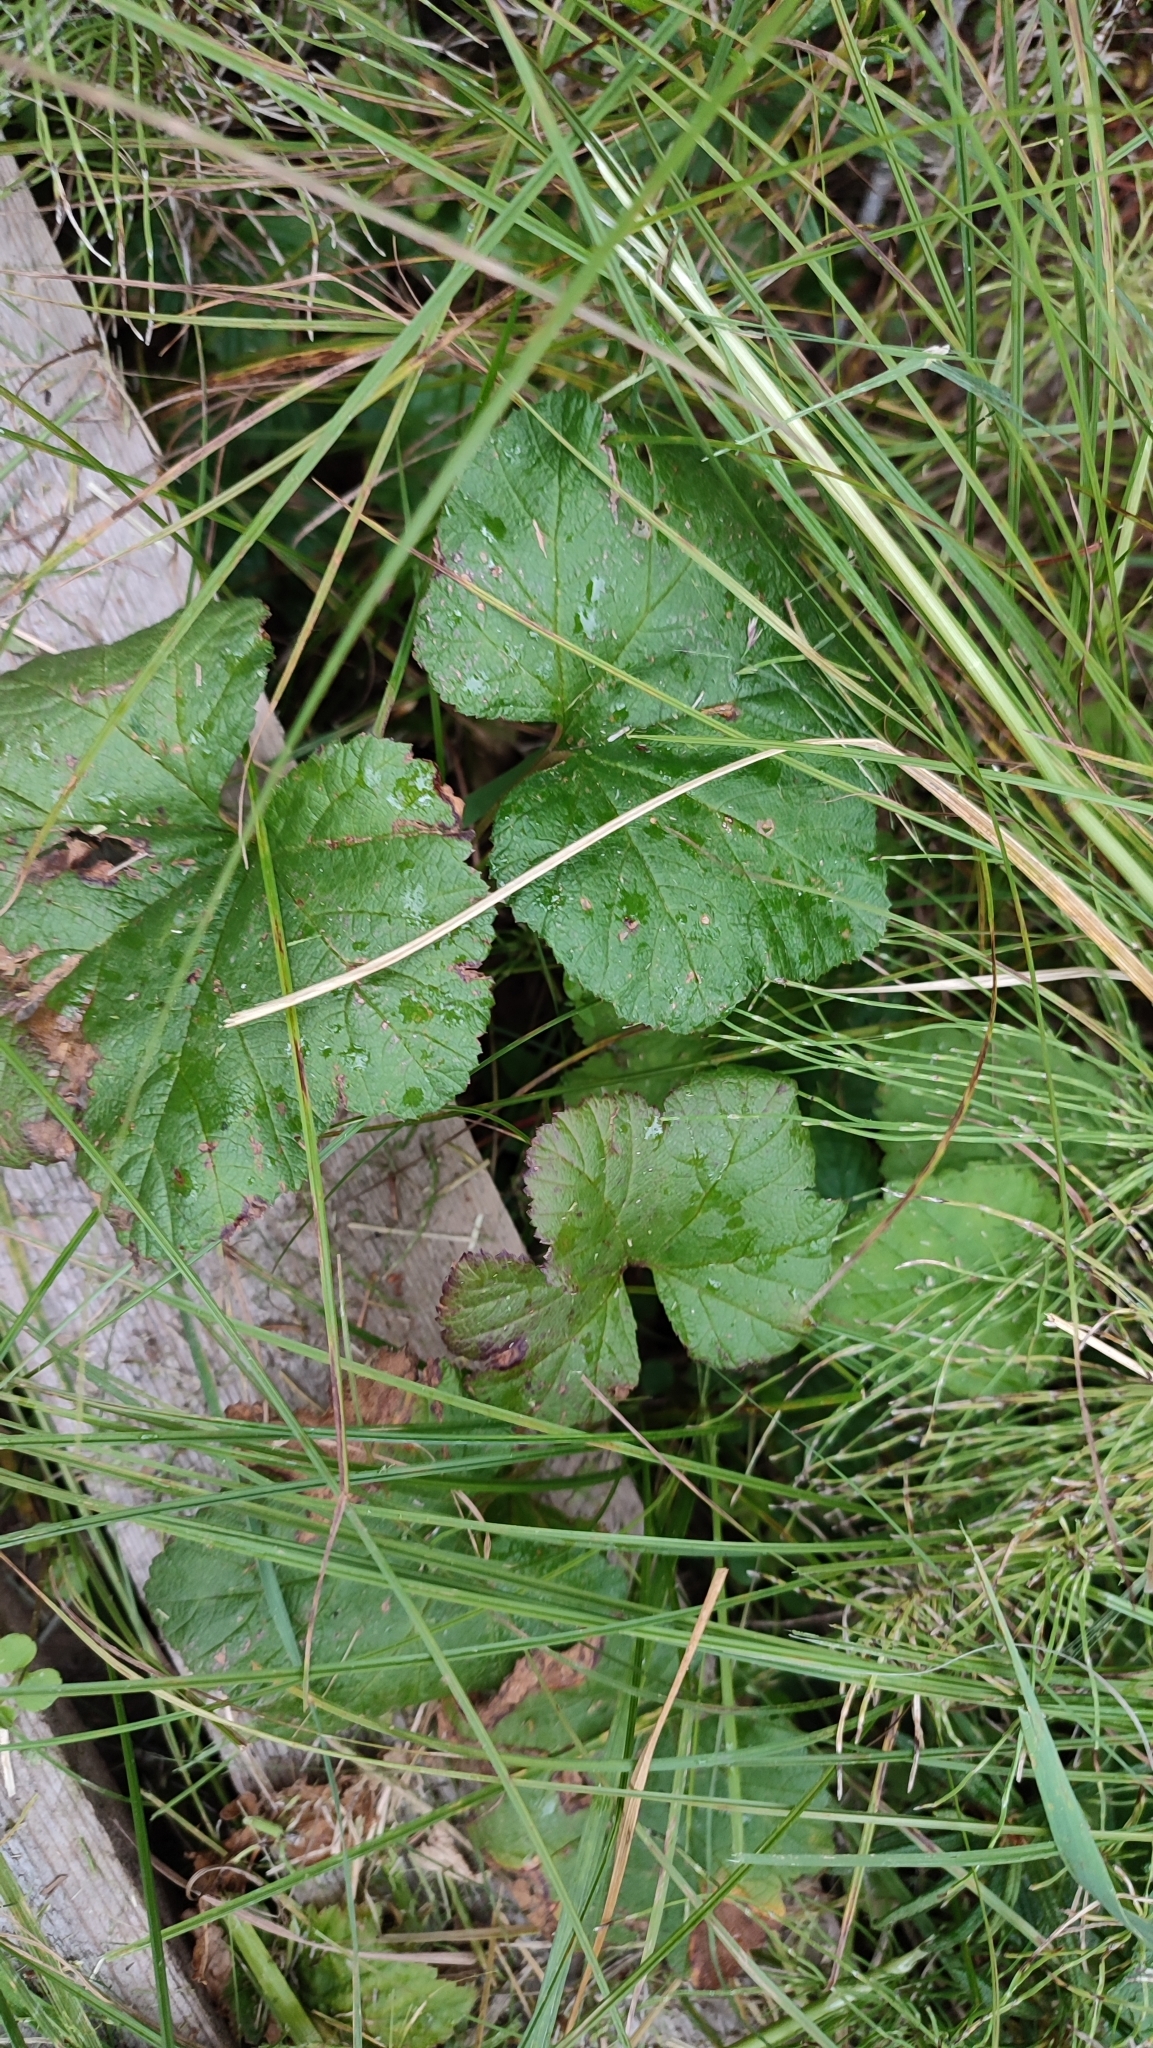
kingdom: Plantae
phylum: Tracheophyta
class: Magnoliopsida
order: Rosales
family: Rosaceae
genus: Rubus
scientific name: Rubus chamaemorus
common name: Cloudberry
